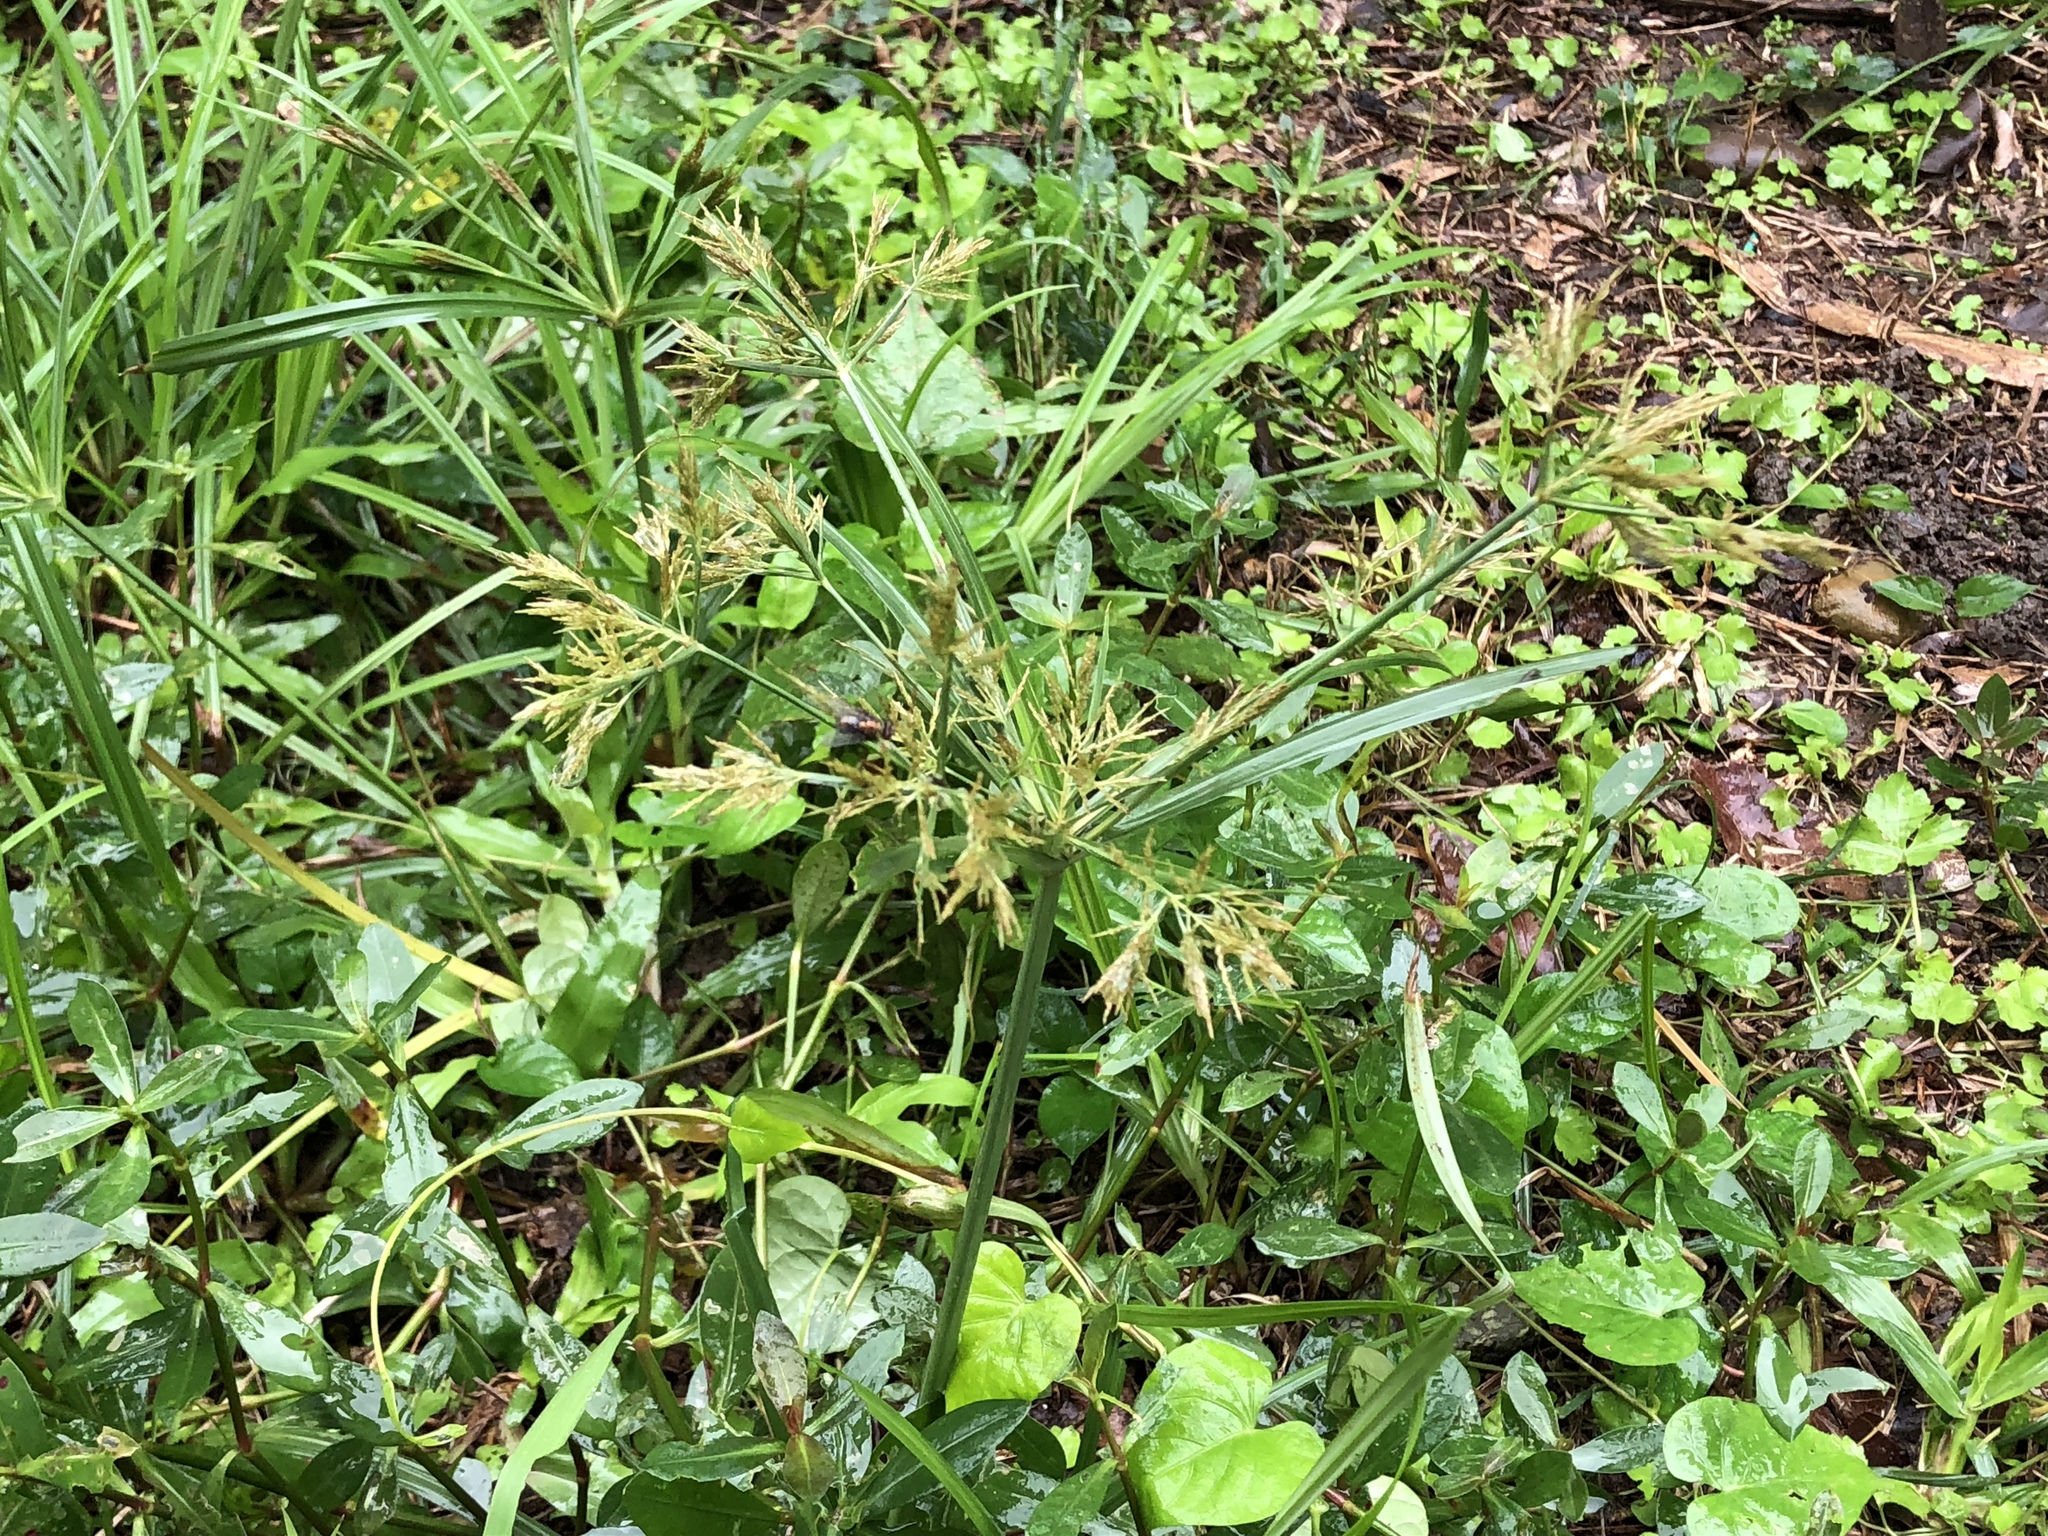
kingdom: Plantae
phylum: Tracheophyta
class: Liliopsida
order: Poales
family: Cyperaceae
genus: Cyperus
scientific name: Cyperus distans
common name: Slender cyperus
